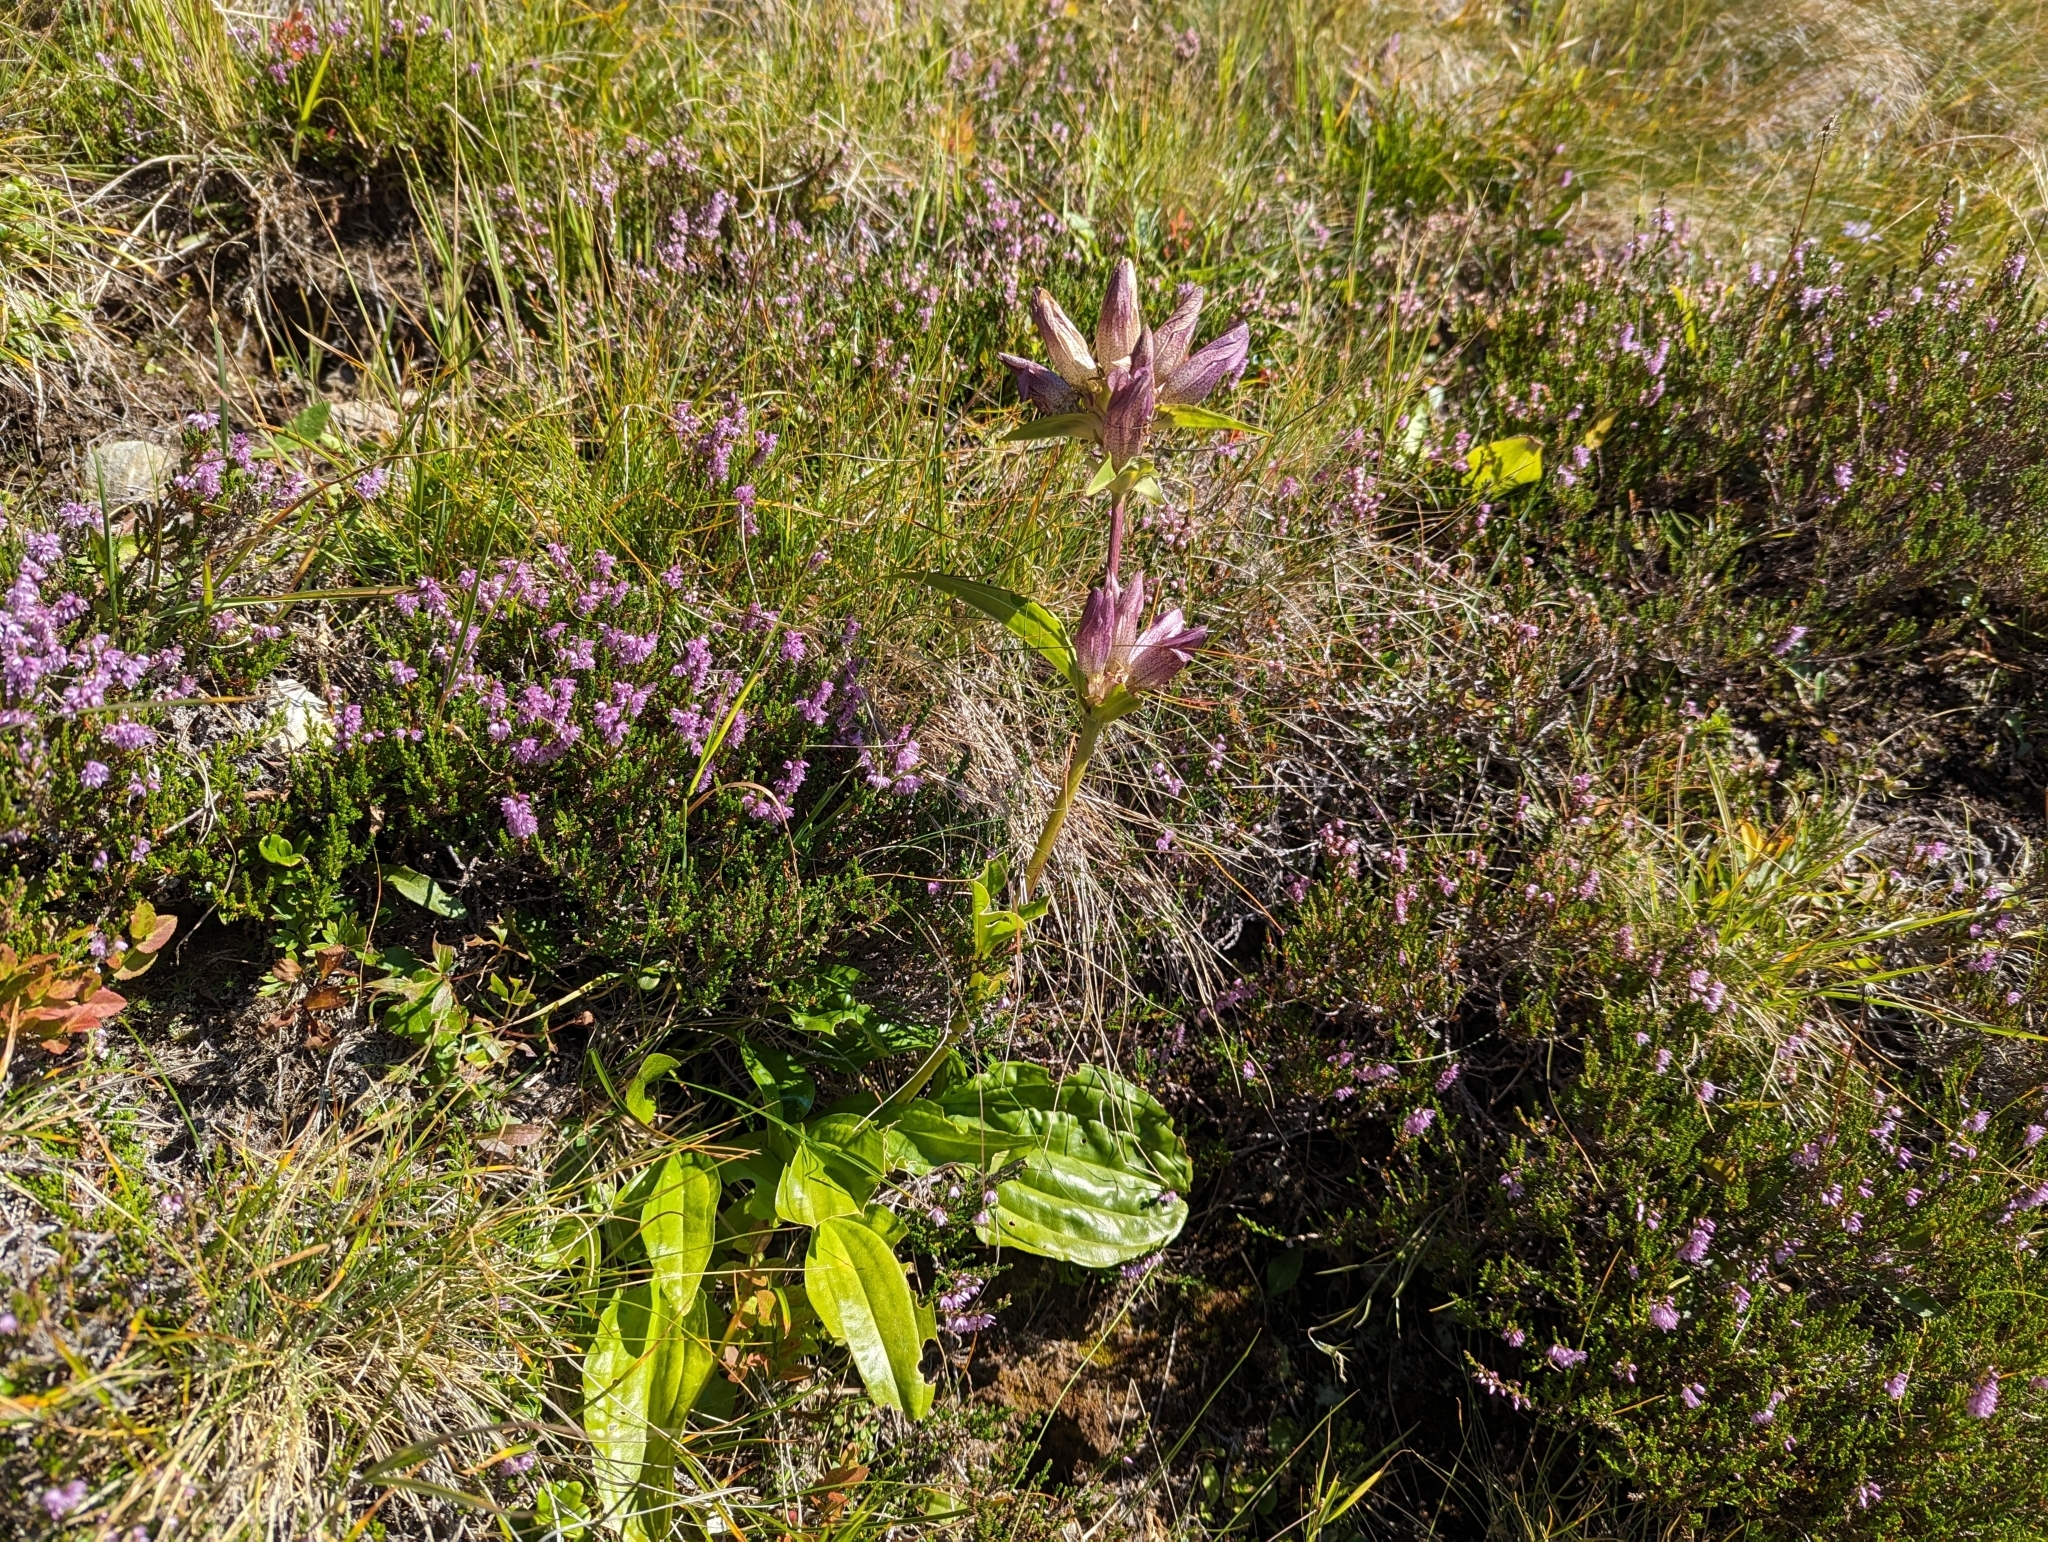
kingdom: Plantae
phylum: Tracheophyta
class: Magnoliopsida
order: Gentianales
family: Gentianaceae
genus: Gentiana
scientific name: Gentiana pannonica
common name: Hungarian gentian
